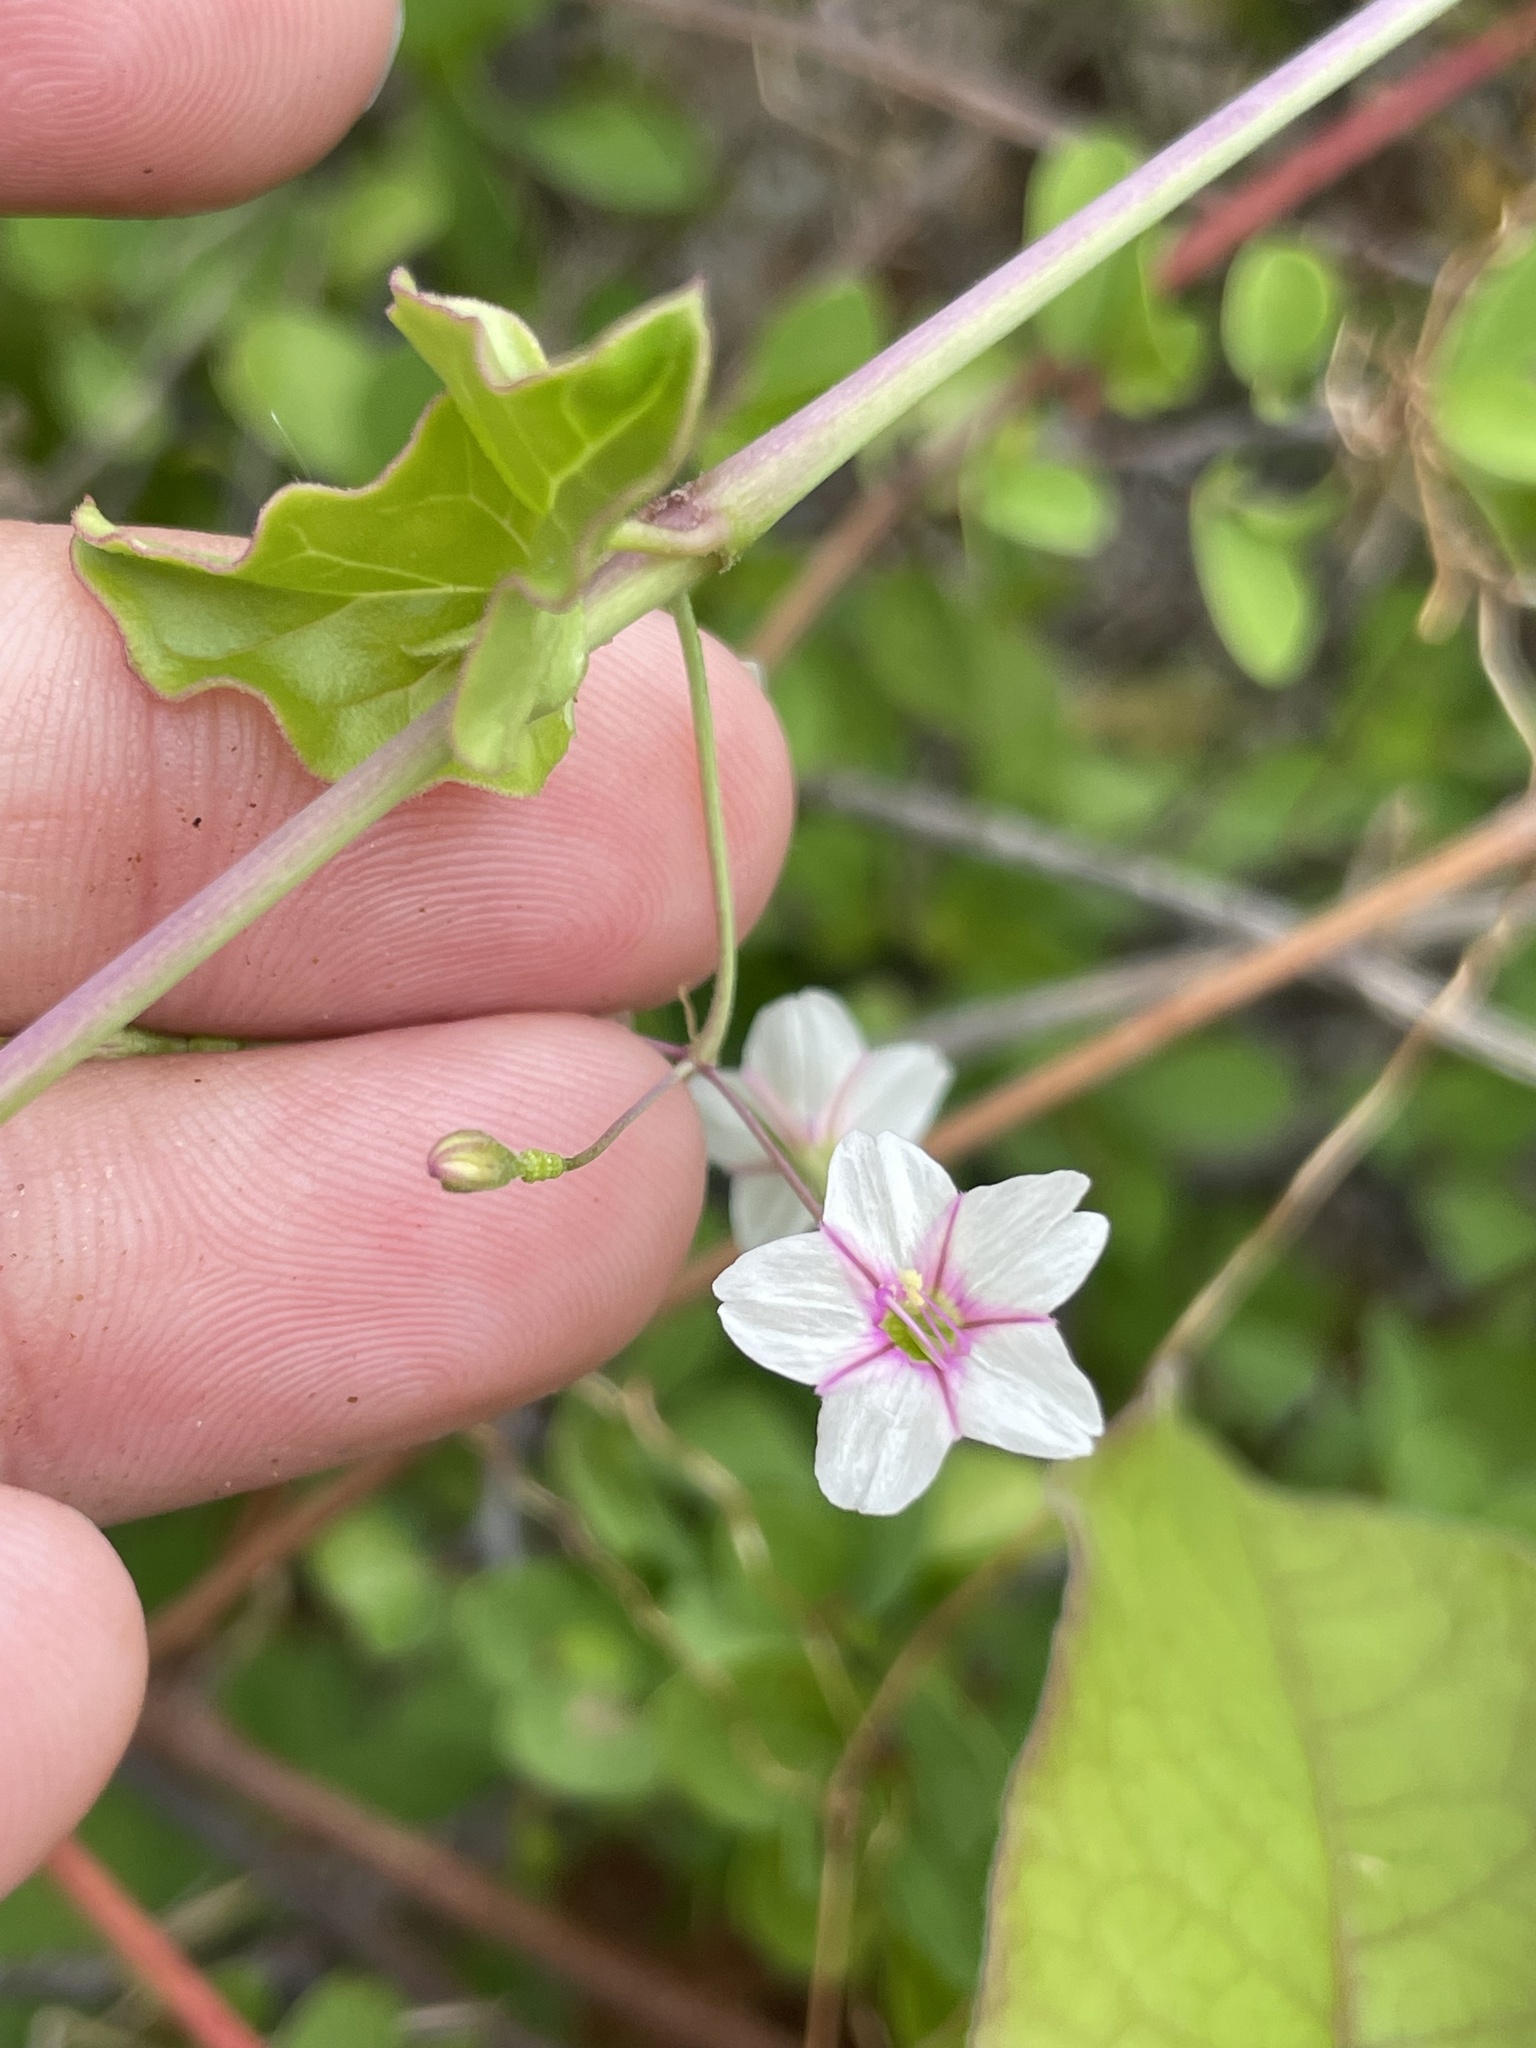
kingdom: Plantae
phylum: Tracheophyta
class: Magnoliopsida
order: Caryophyllales
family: Nyctaginaceae
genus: Commicarpus
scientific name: Commicarpus brandegeei
